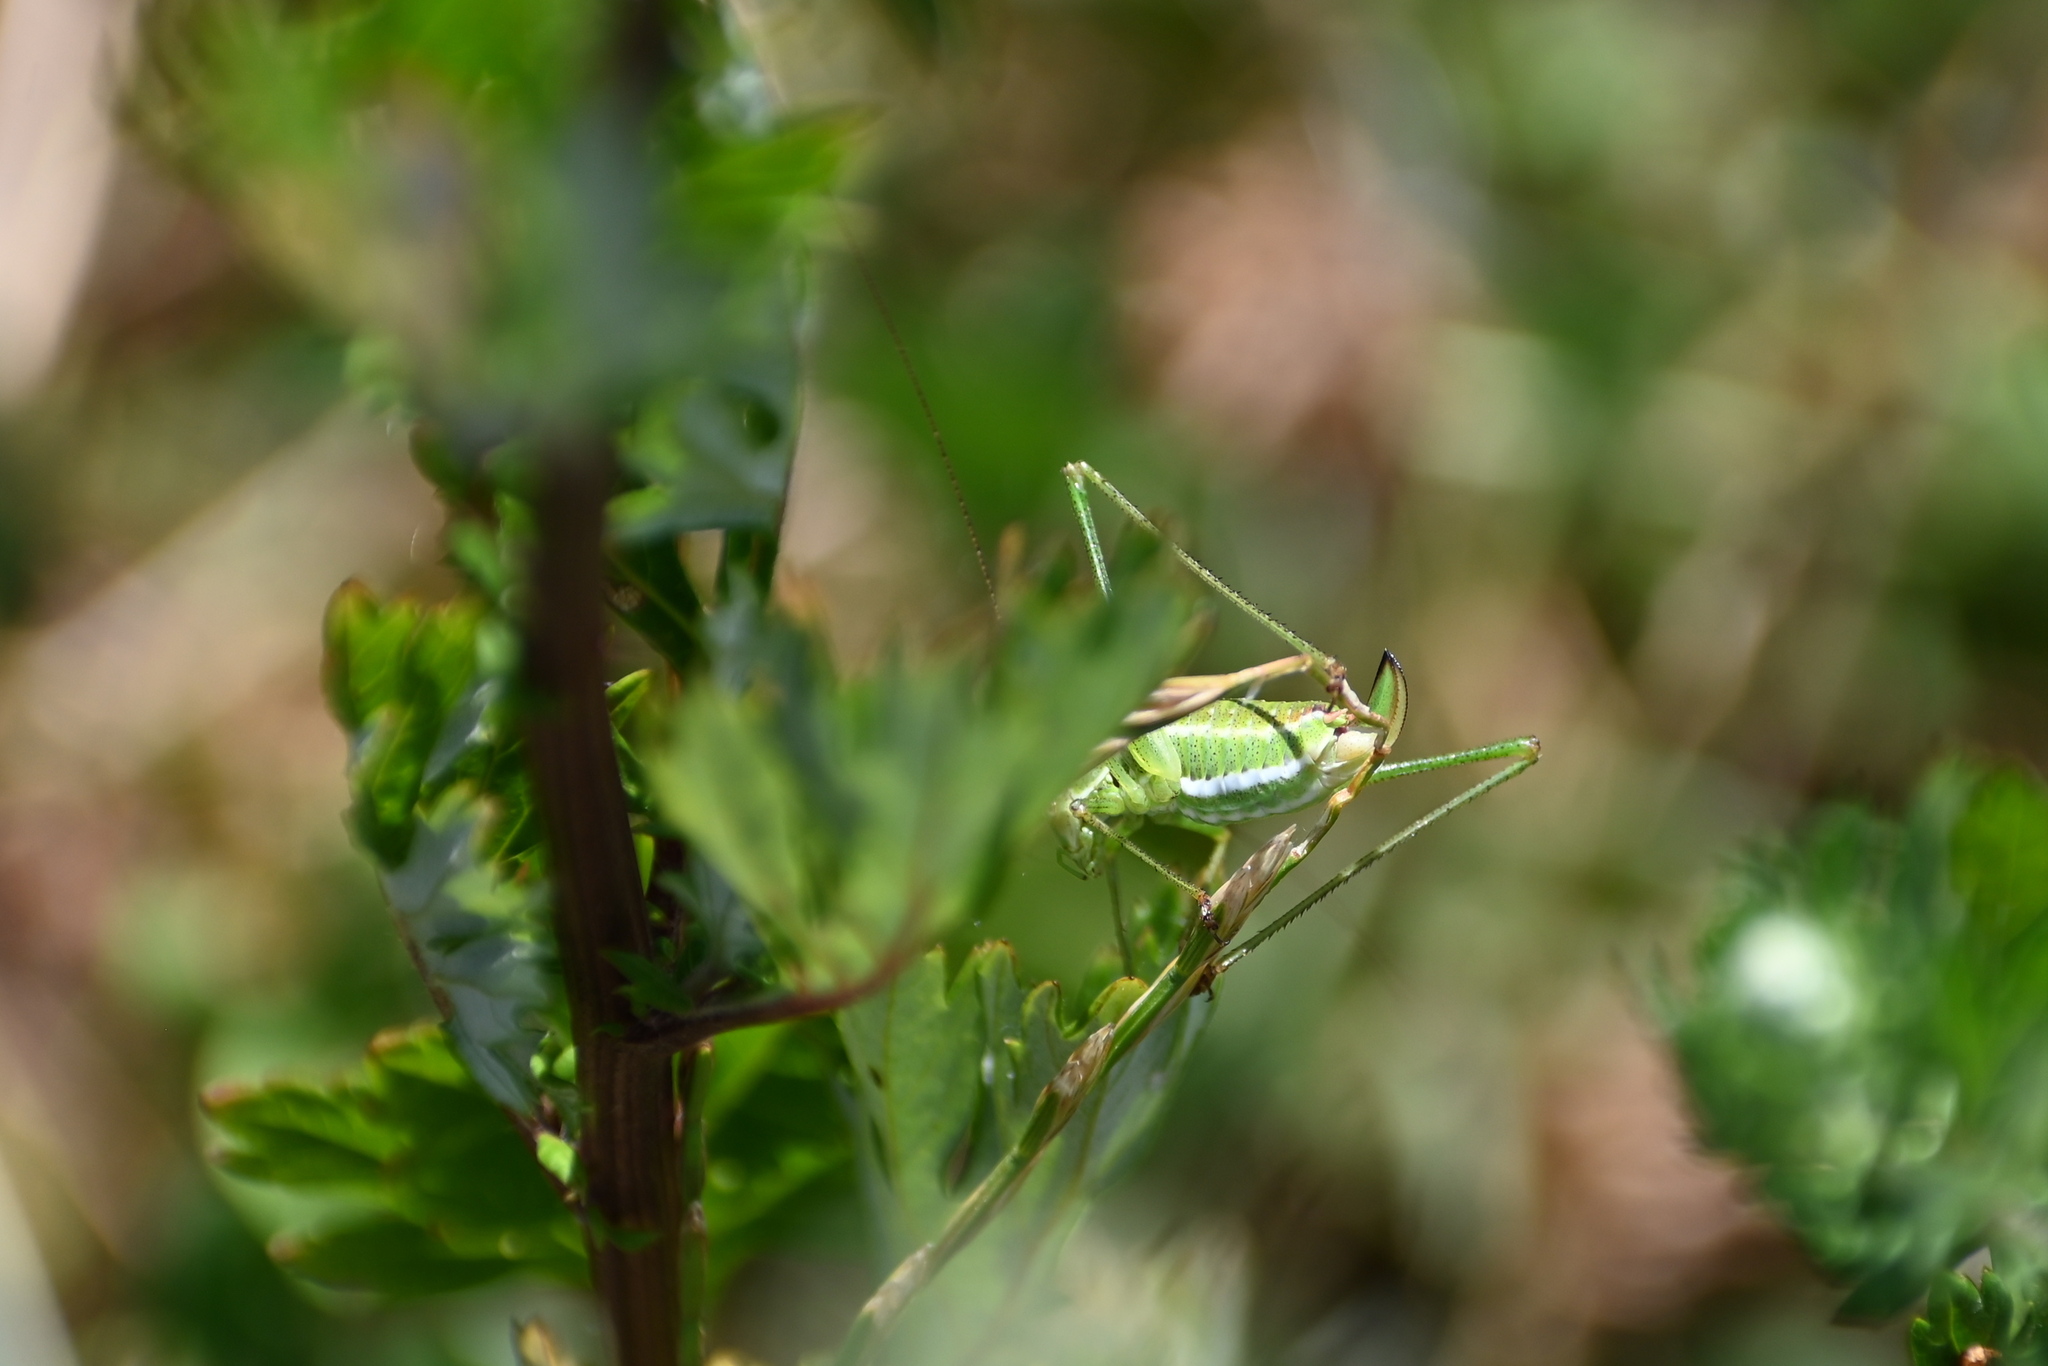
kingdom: Animalia
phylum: Arthropoda
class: Insecta
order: Orthoptera
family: Tettigoniidae
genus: Leptophyes
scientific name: Leptophyes albovittata
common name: Striped bush-cricket
